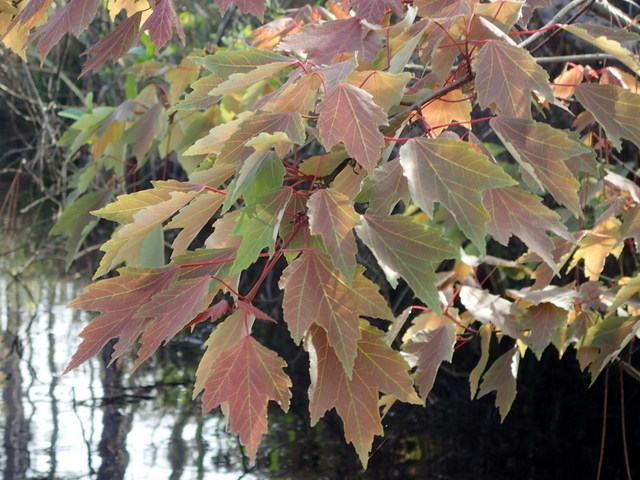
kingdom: Plantae
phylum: Tracheophyta
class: Magnoliopsida
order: Sapindales
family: Sapindaceae
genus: Acer
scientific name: Acer rubrum
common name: Red maple
